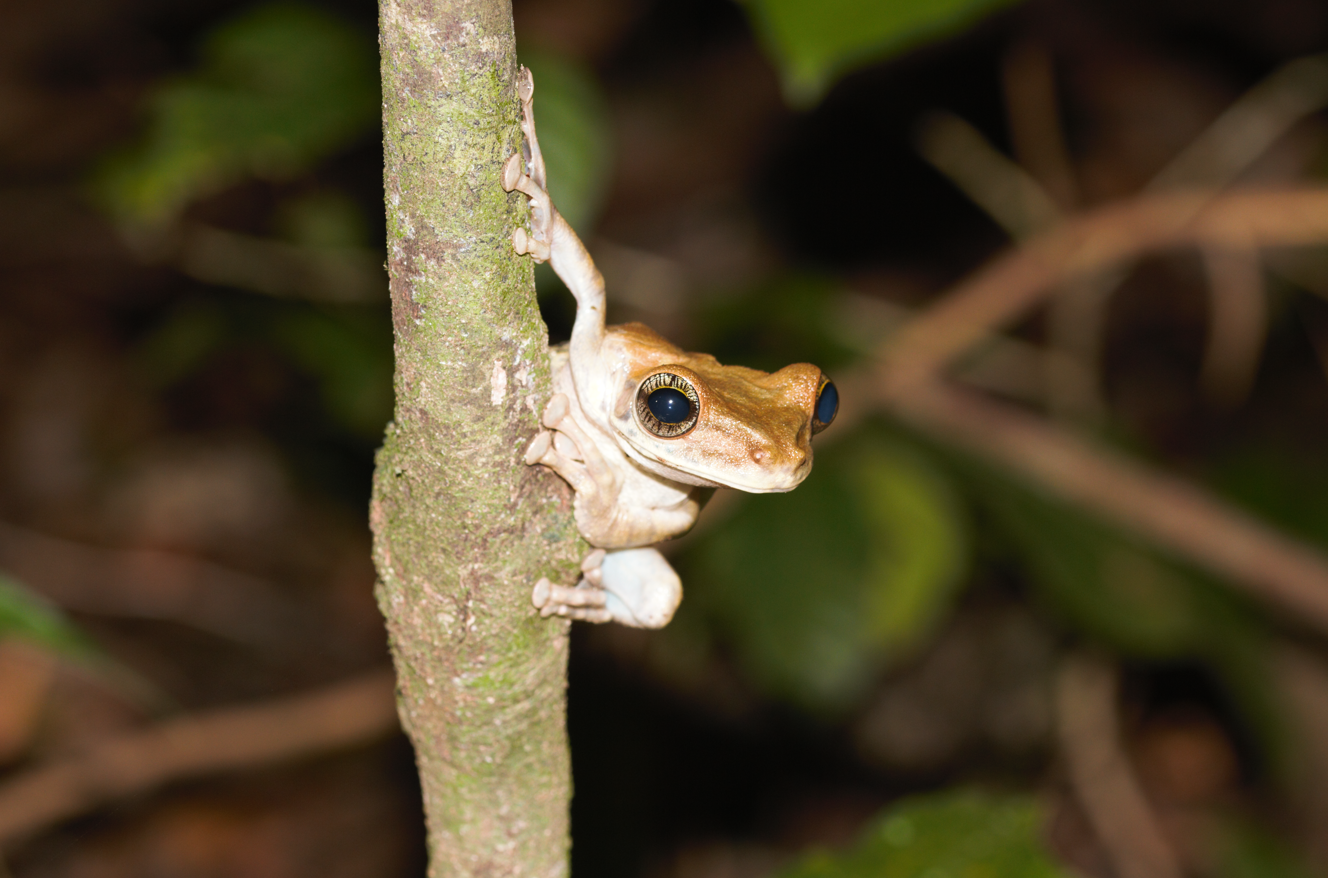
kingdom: Animalia
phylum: Chordata
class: Amphibia
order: Anura
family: Hylidae
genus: Osteocephalus
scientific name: Osteocephalus taurinus
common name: Manaus slender-legged treefrog
